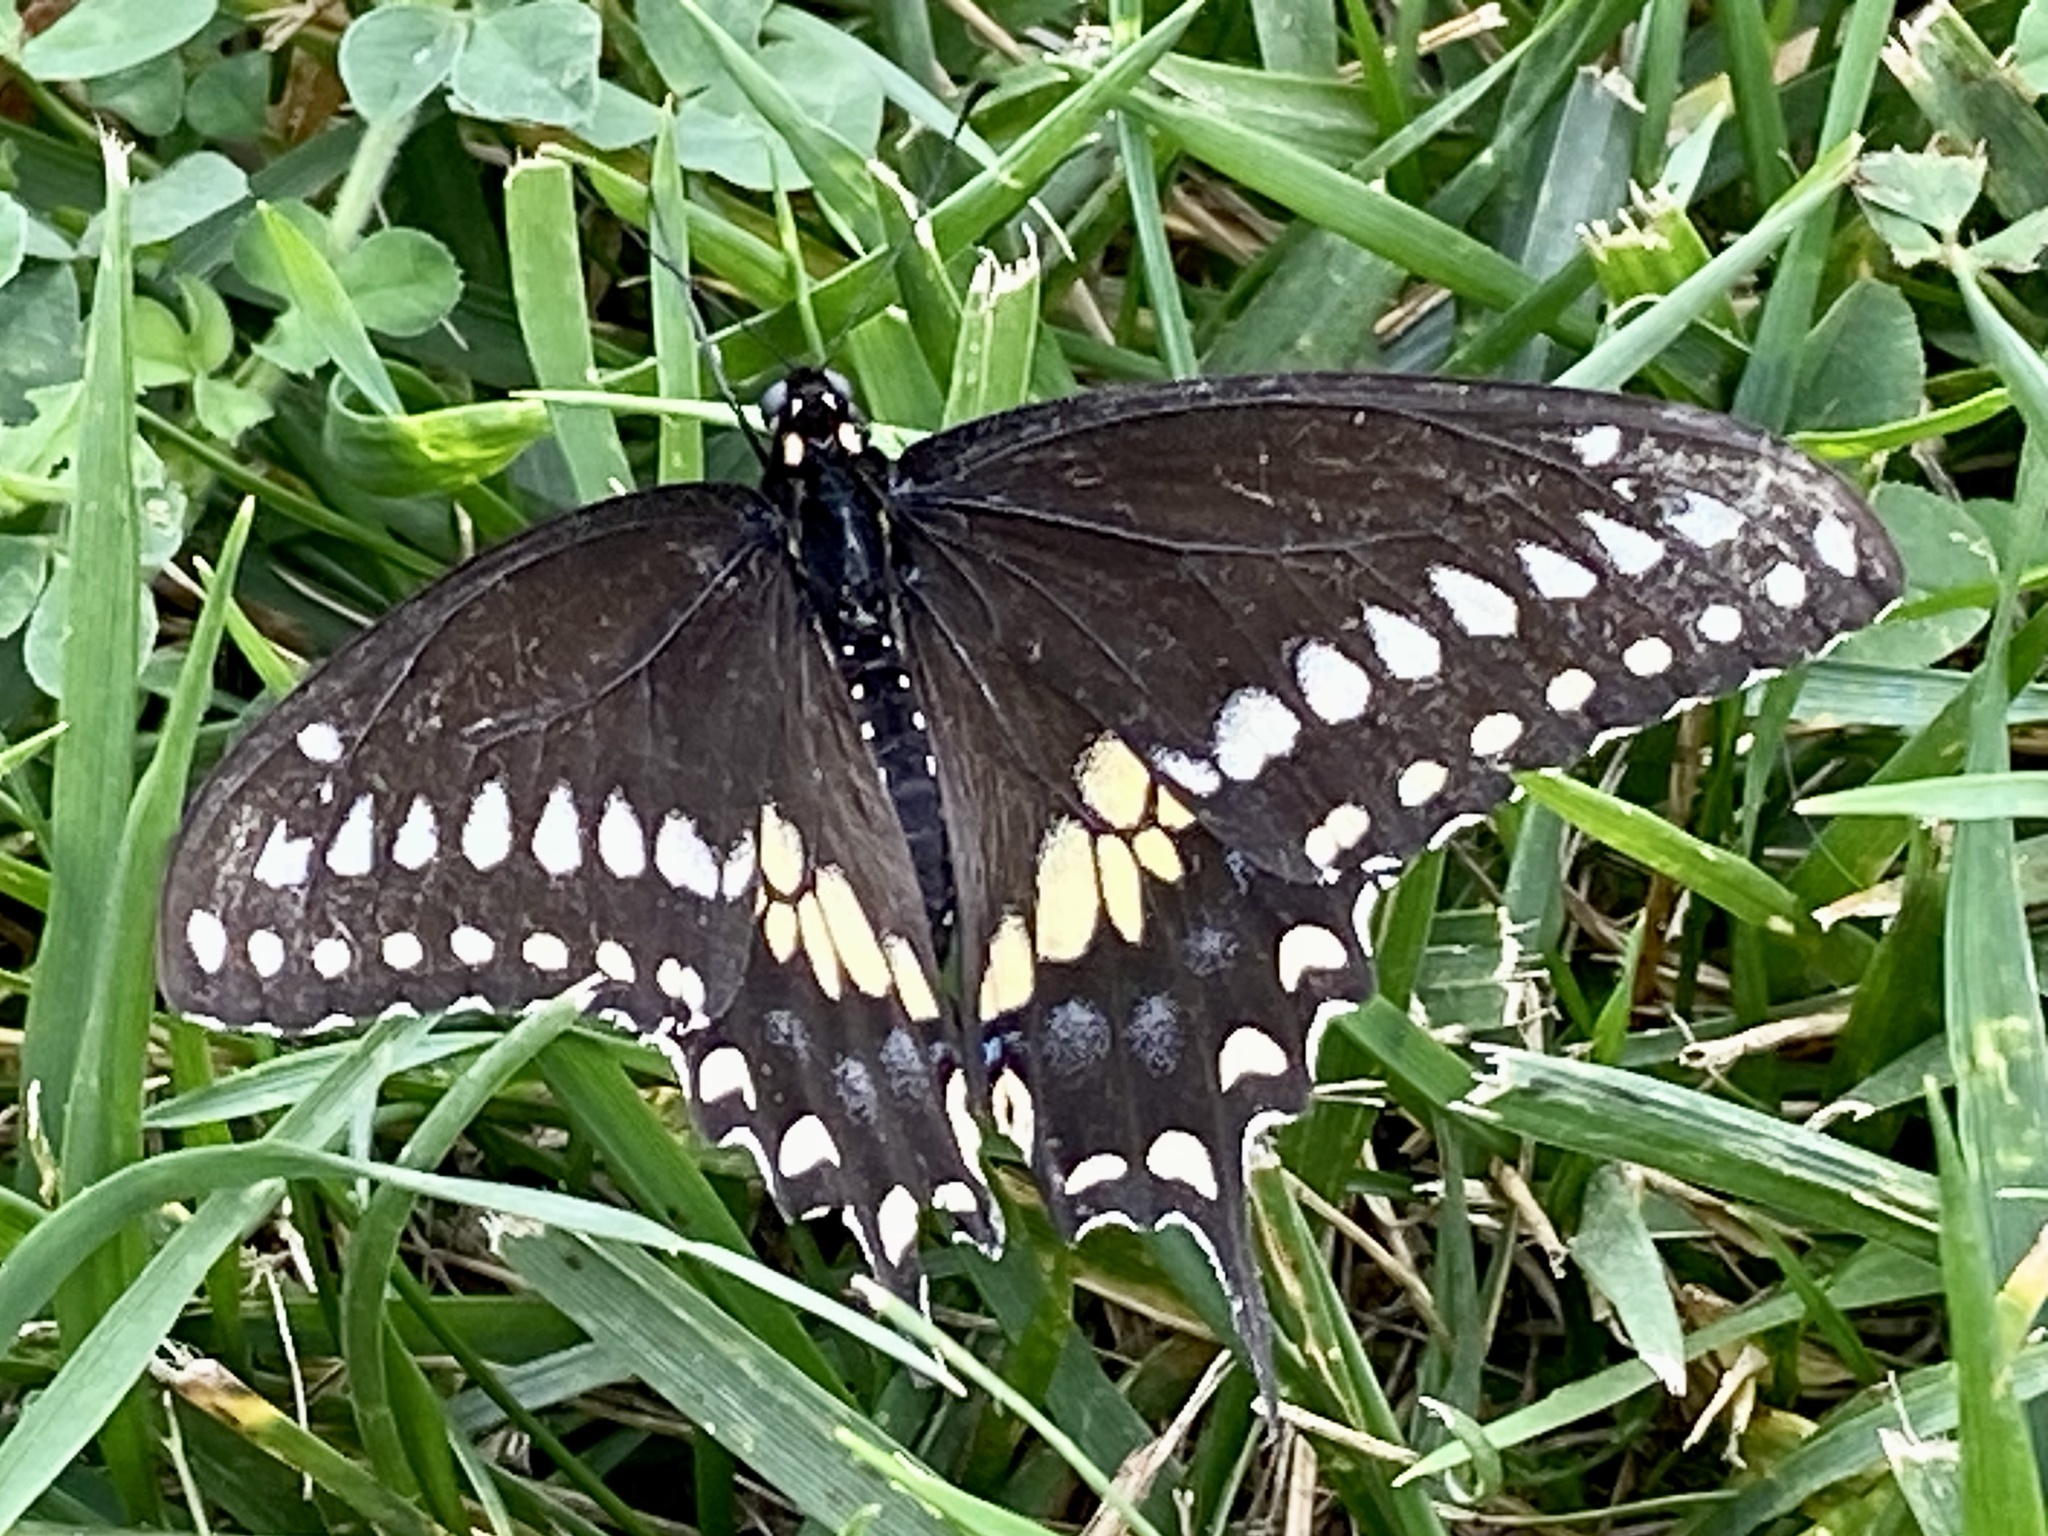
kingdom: Animalia
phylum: Arthropoda
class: Insecta
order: Lepidoptera
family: Papilionidae
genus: Papilio
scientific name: Papilio polyxenes
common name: Black swallowtail
